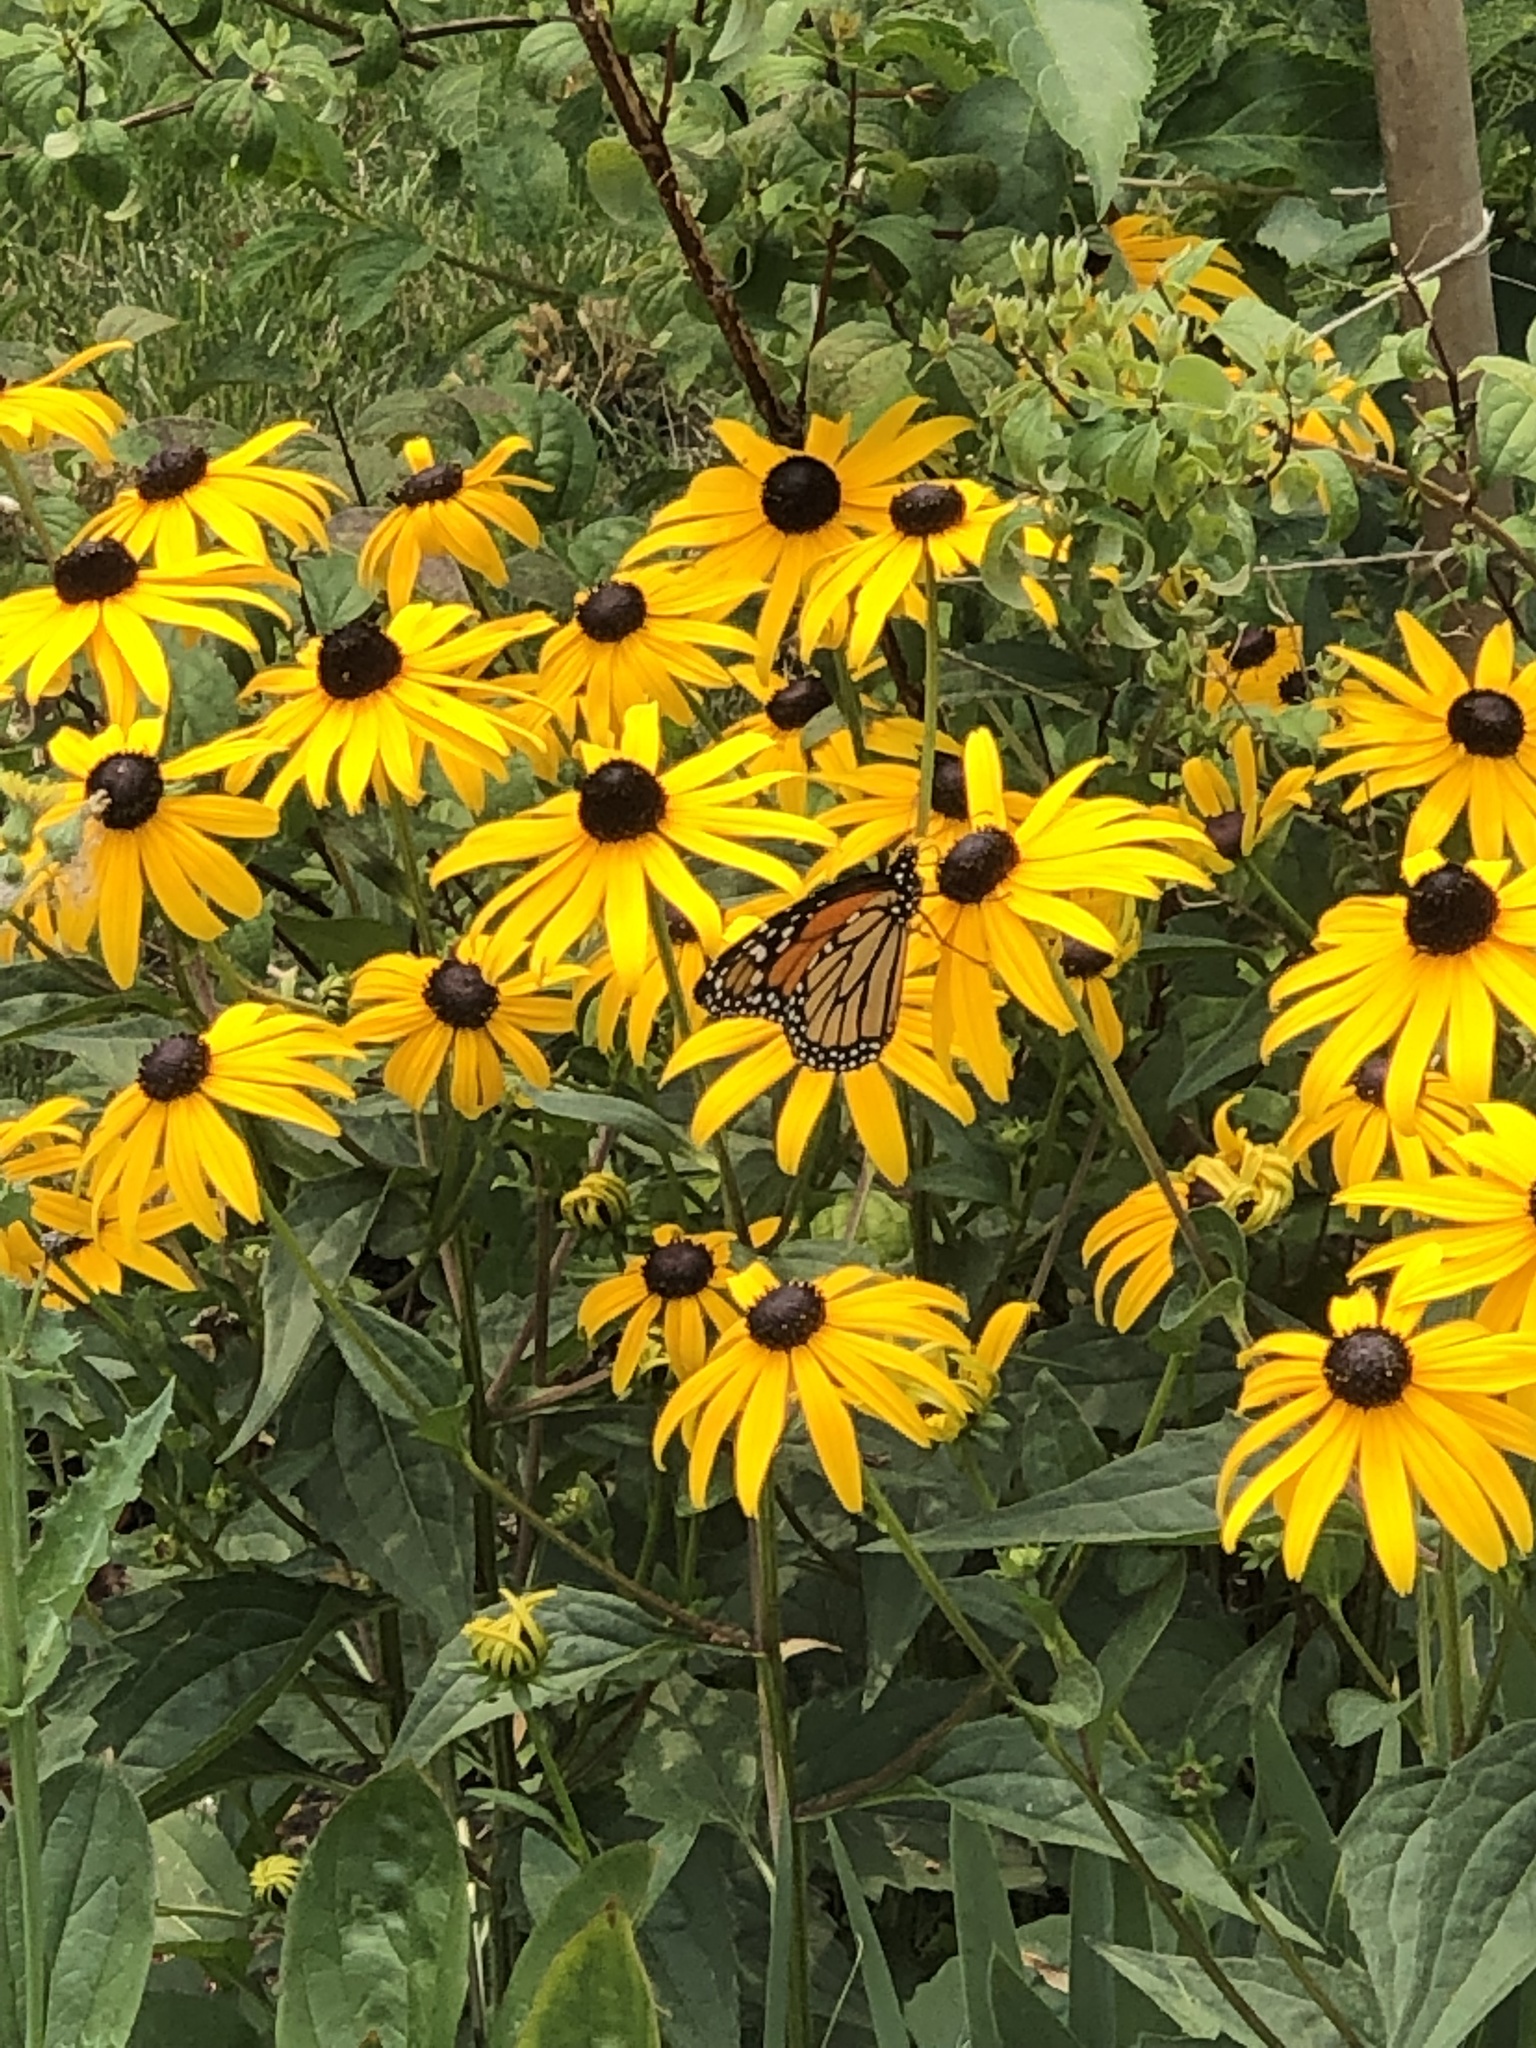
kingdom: Animalia
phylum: Arthropoda
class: Insecta
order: Lepidoptera
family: Nymphalidae
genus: Danaus
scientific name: Danaus plexippus
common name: Monarch
